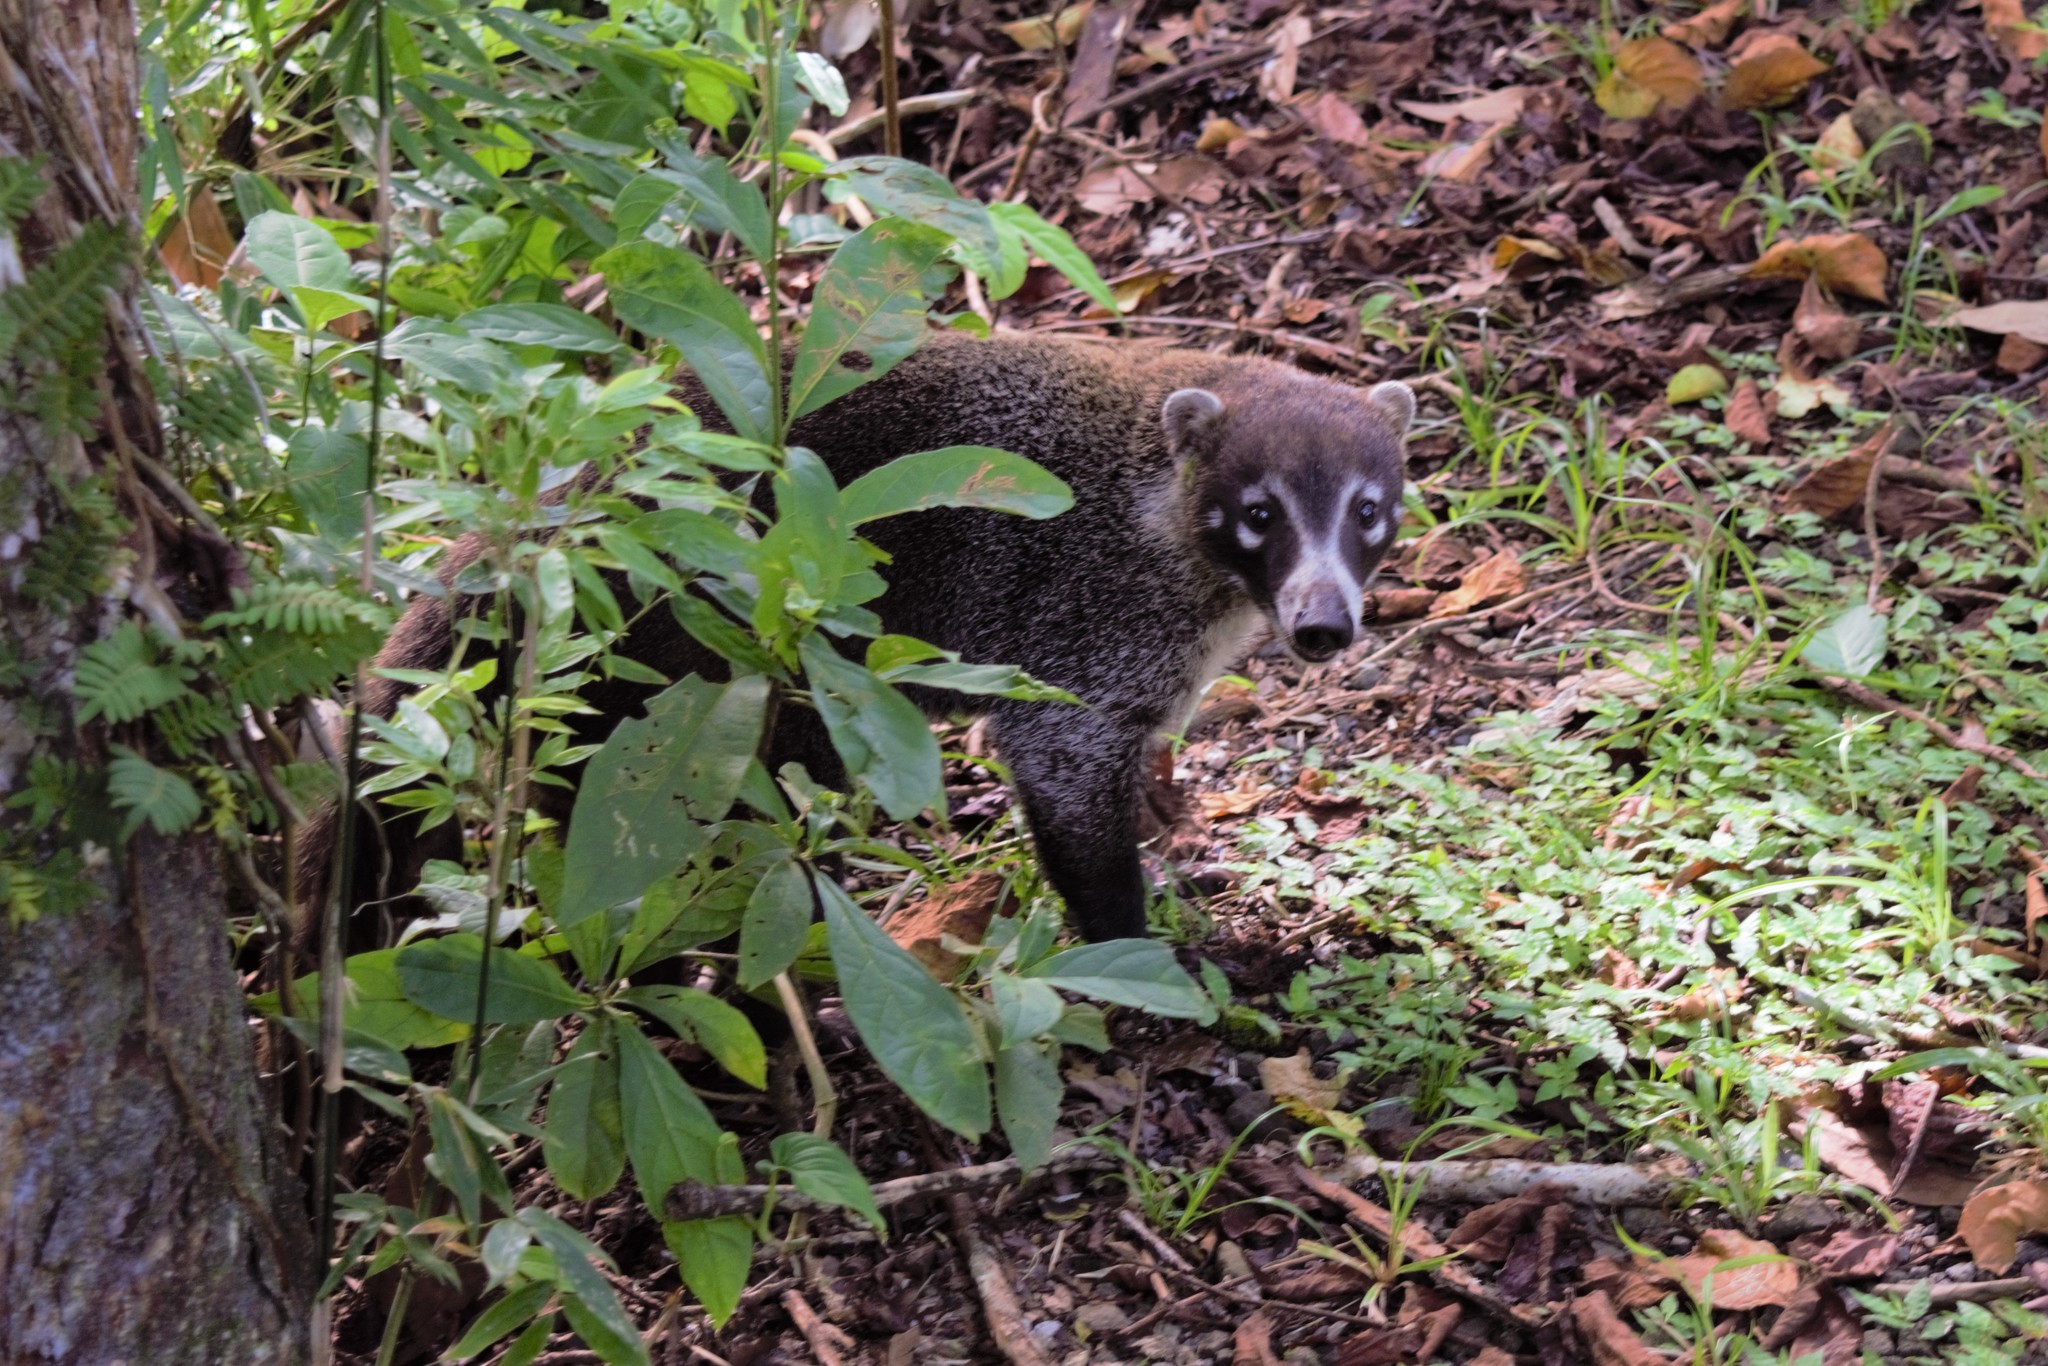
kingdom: Animalia
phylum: Chordata
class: Mammalia
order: Carnivora
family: Procyonidae
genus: Nasua
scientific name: Nasua narica
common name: White-nosed coati
